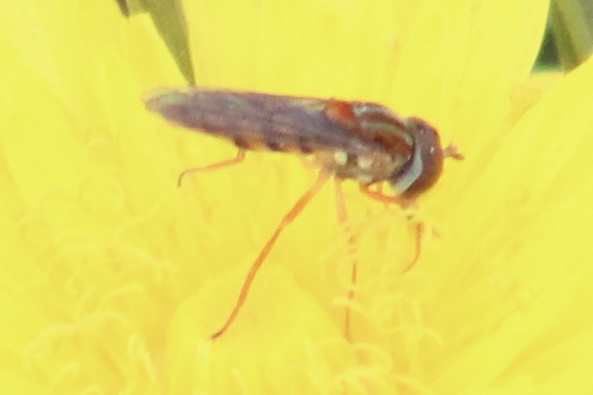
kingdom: Animalia
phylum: Arthropoda
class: Insecta
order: Diptera
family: Syrphidae
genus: Toxomerus
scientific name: Toxomerus jussiaeae
